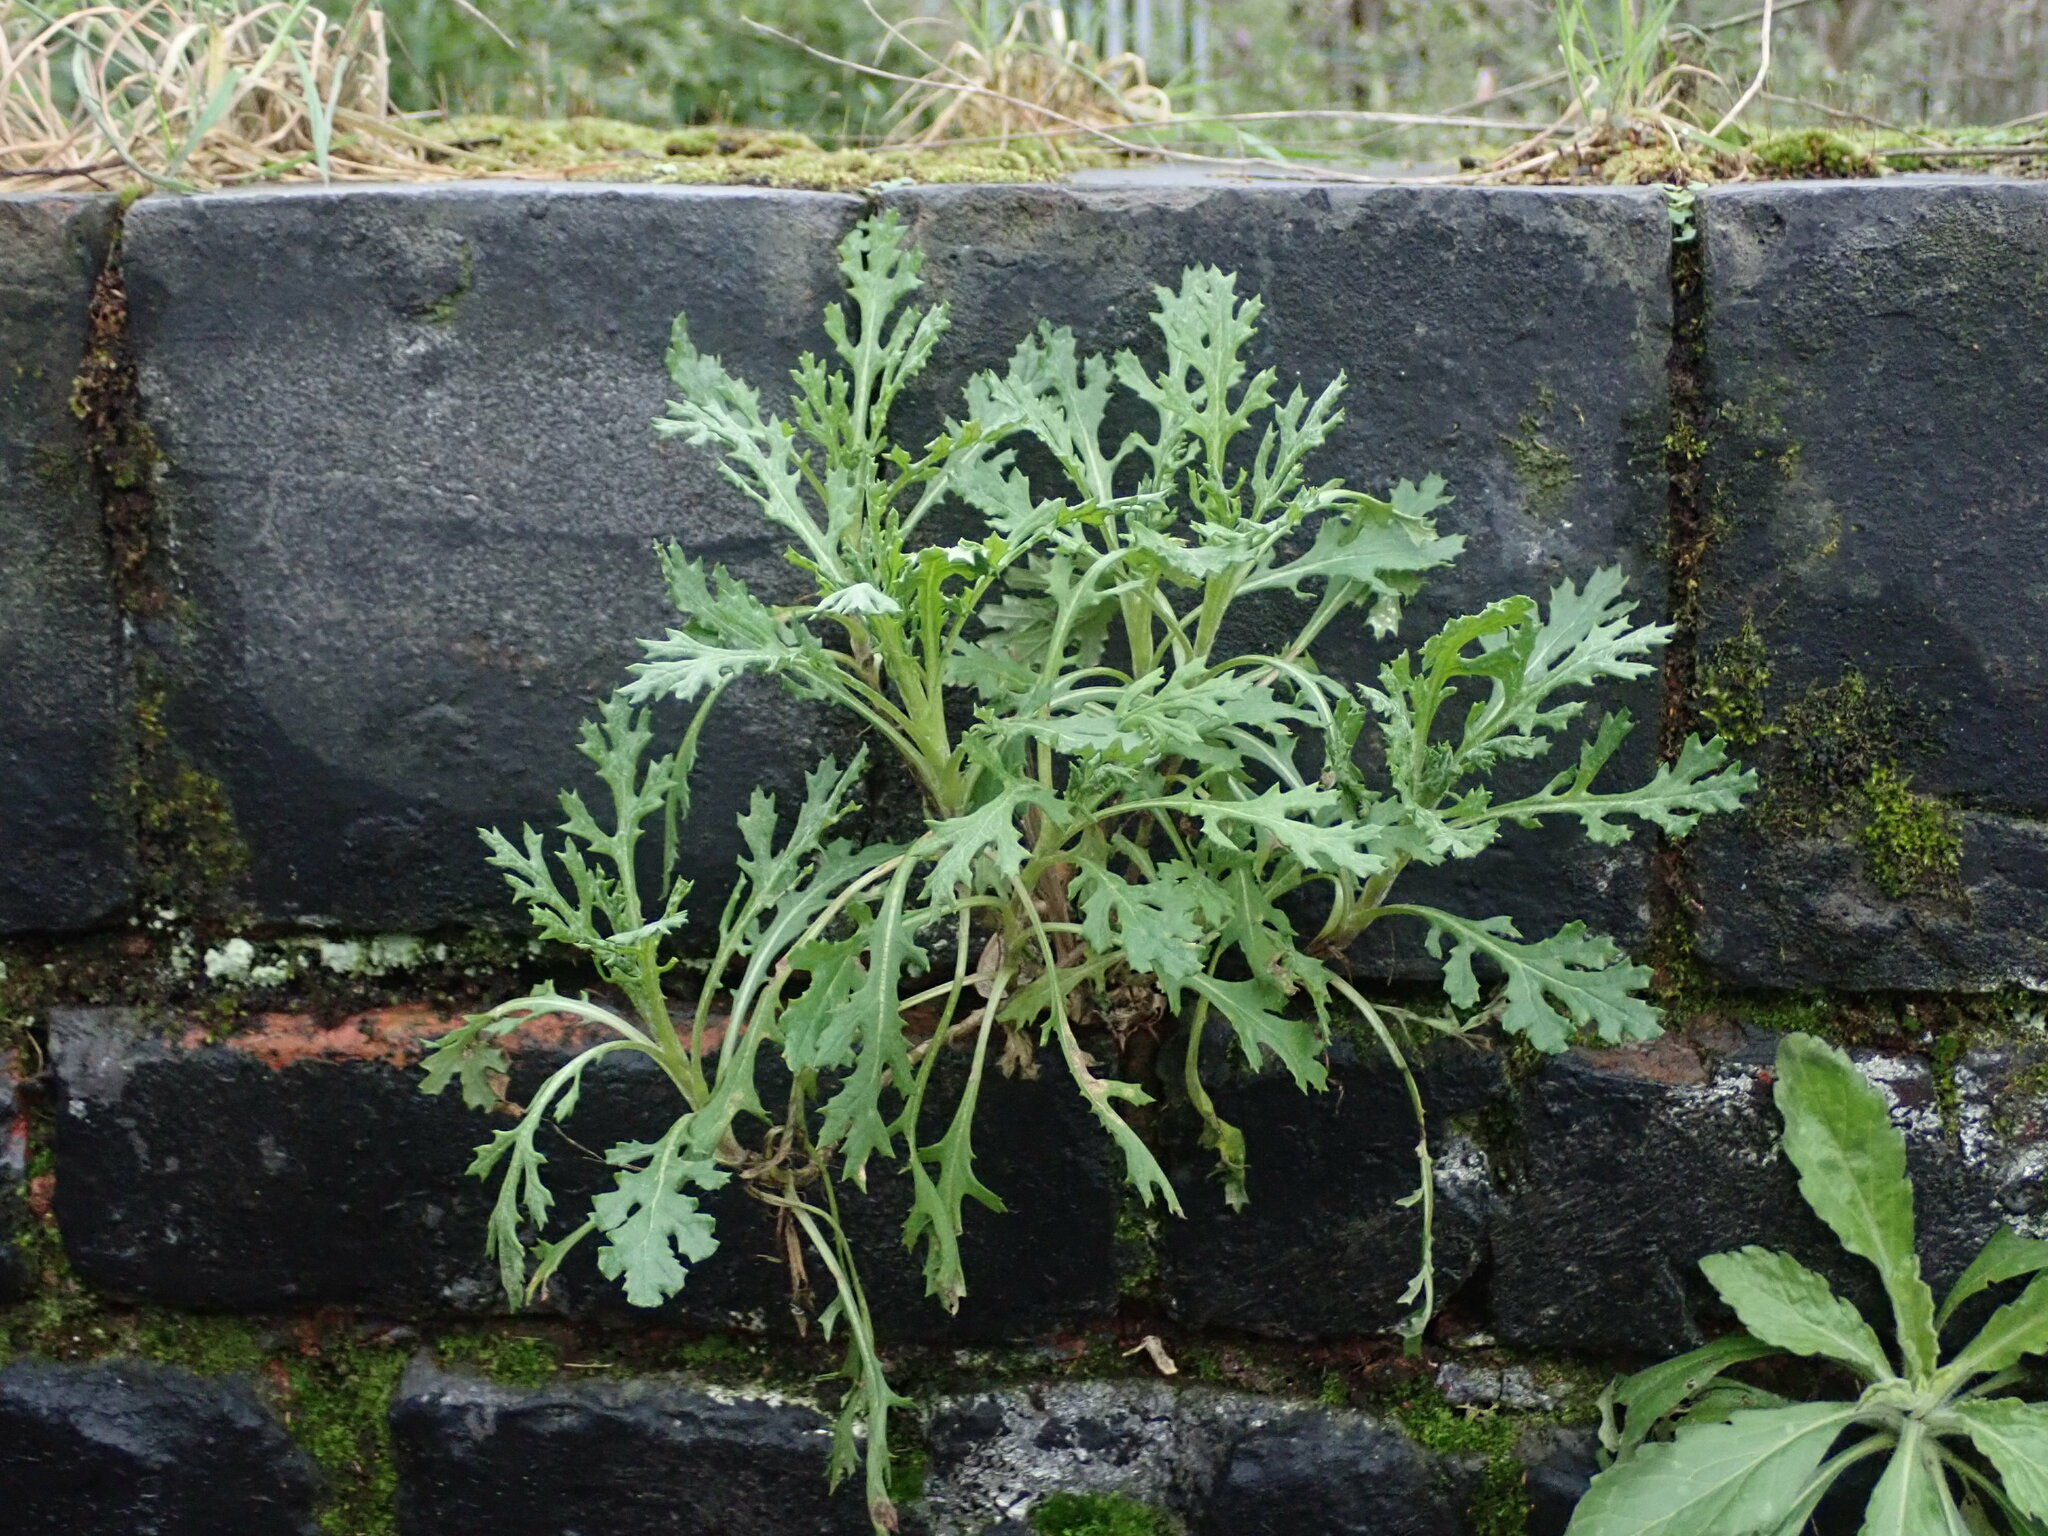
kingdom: Plantae
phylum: Tracheophyta
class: Magnoliopsida
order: Asterales
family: Asteraceae
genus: Senecio
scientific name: Senecio squalidus
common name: Oxford ragwort
